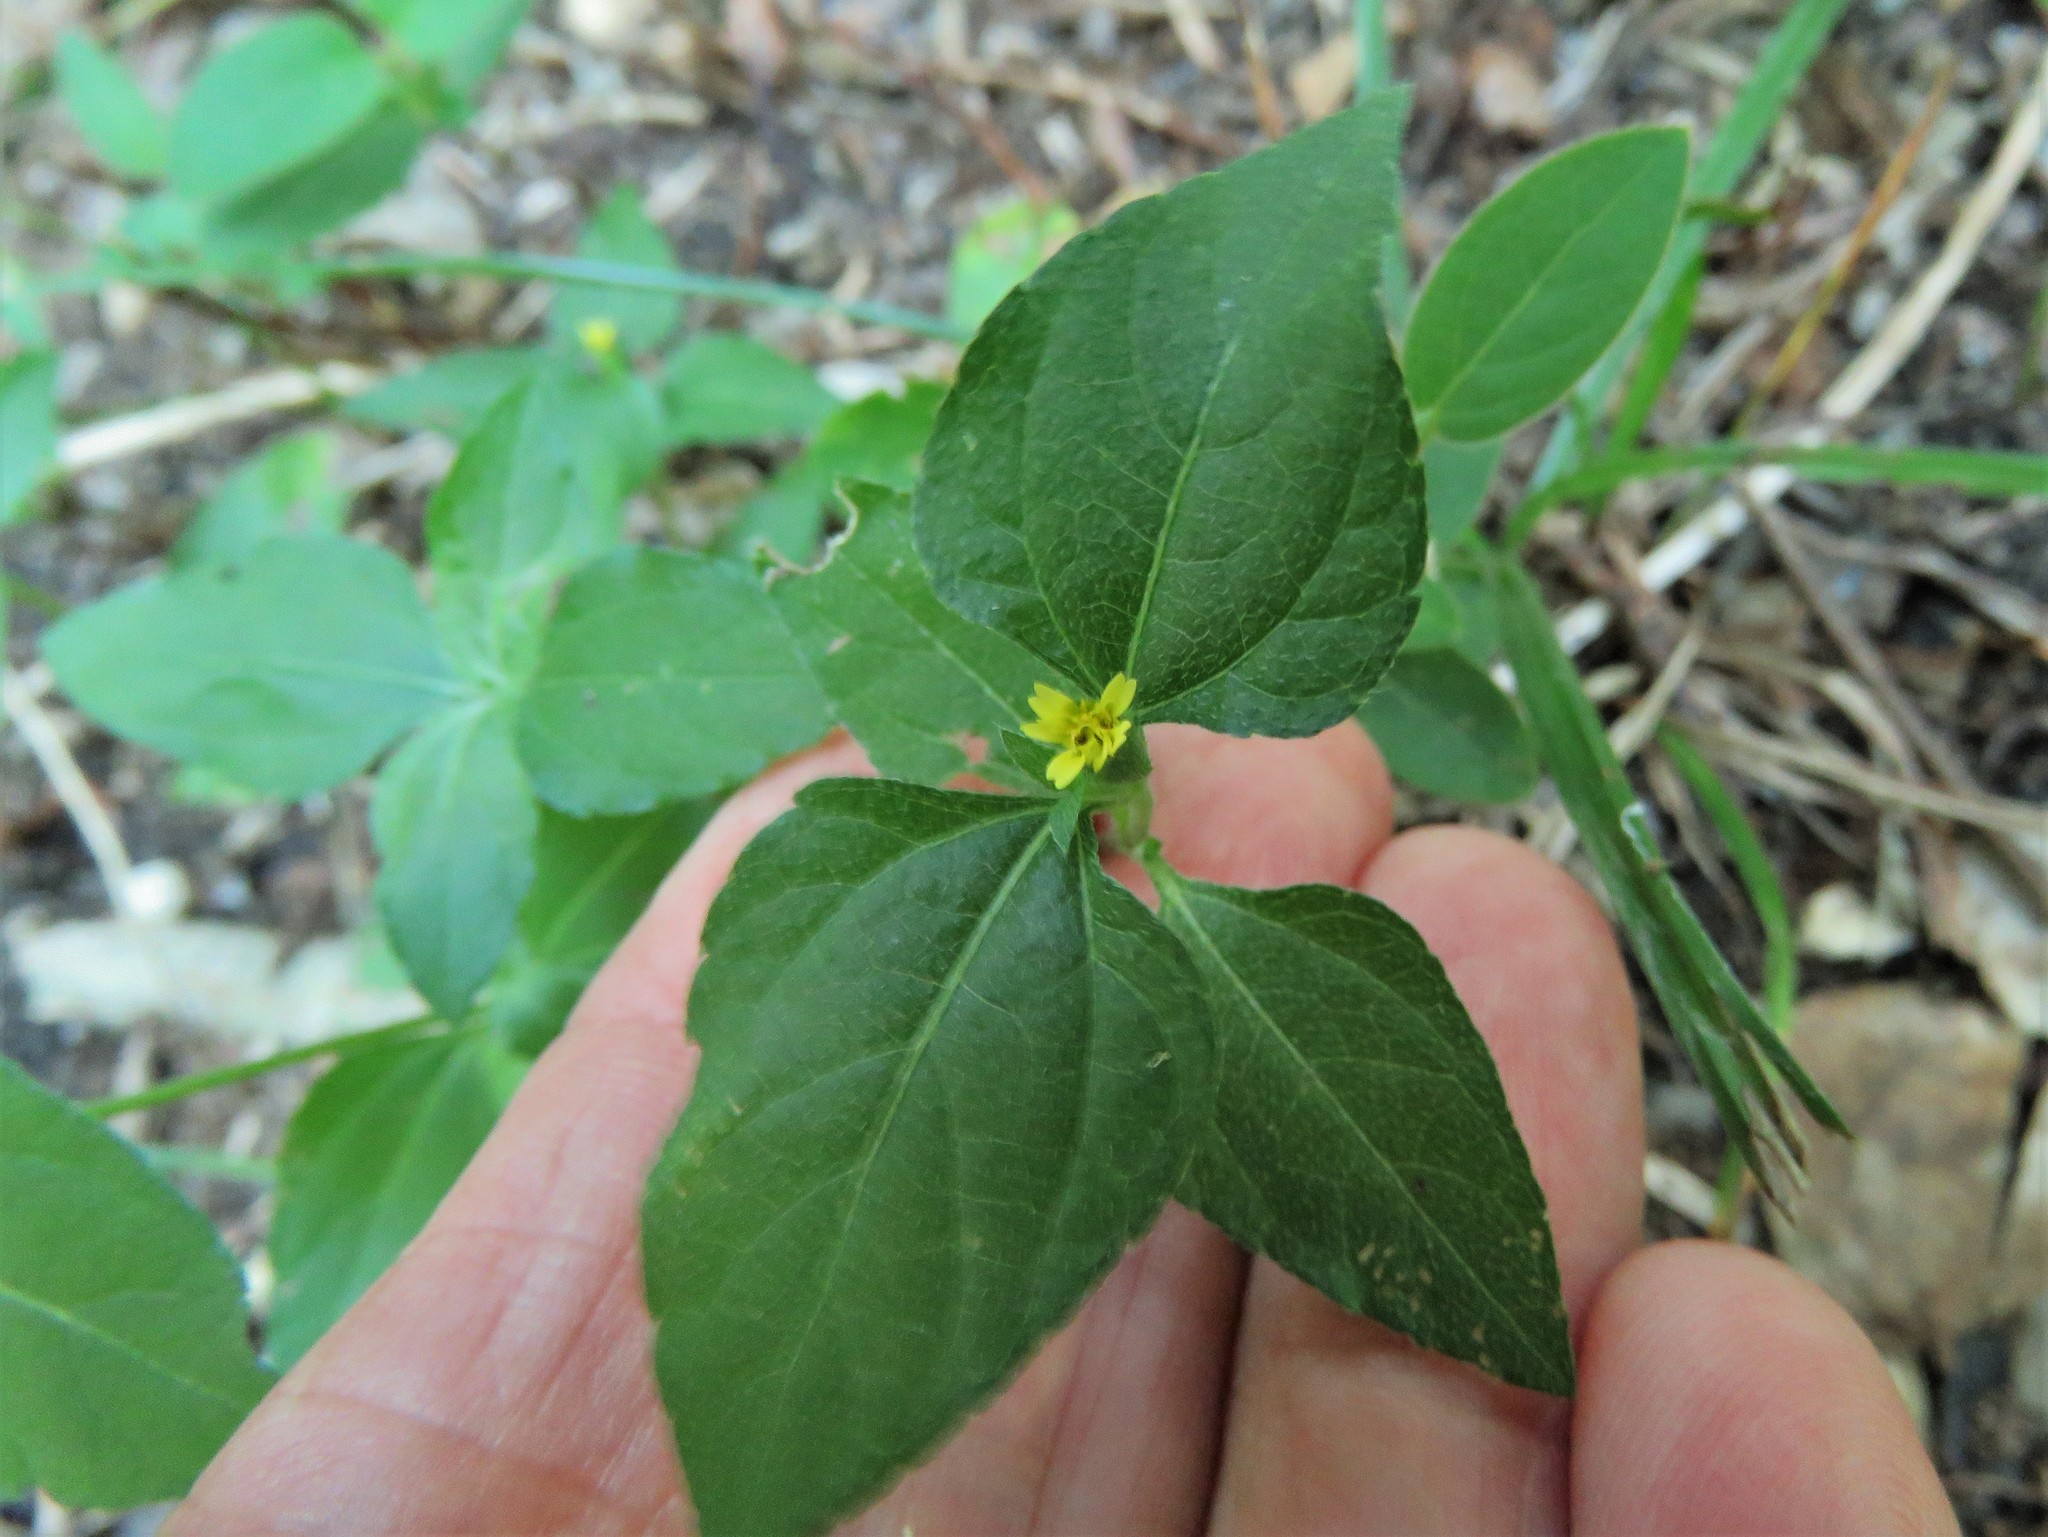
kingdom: Plantae
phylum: Tracheophyta
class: Magnoliopsida
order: Asterales
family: Asteraceae
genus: Calyptocarpus
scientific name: Calyptocarpus vialis
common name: Straggler daisy
